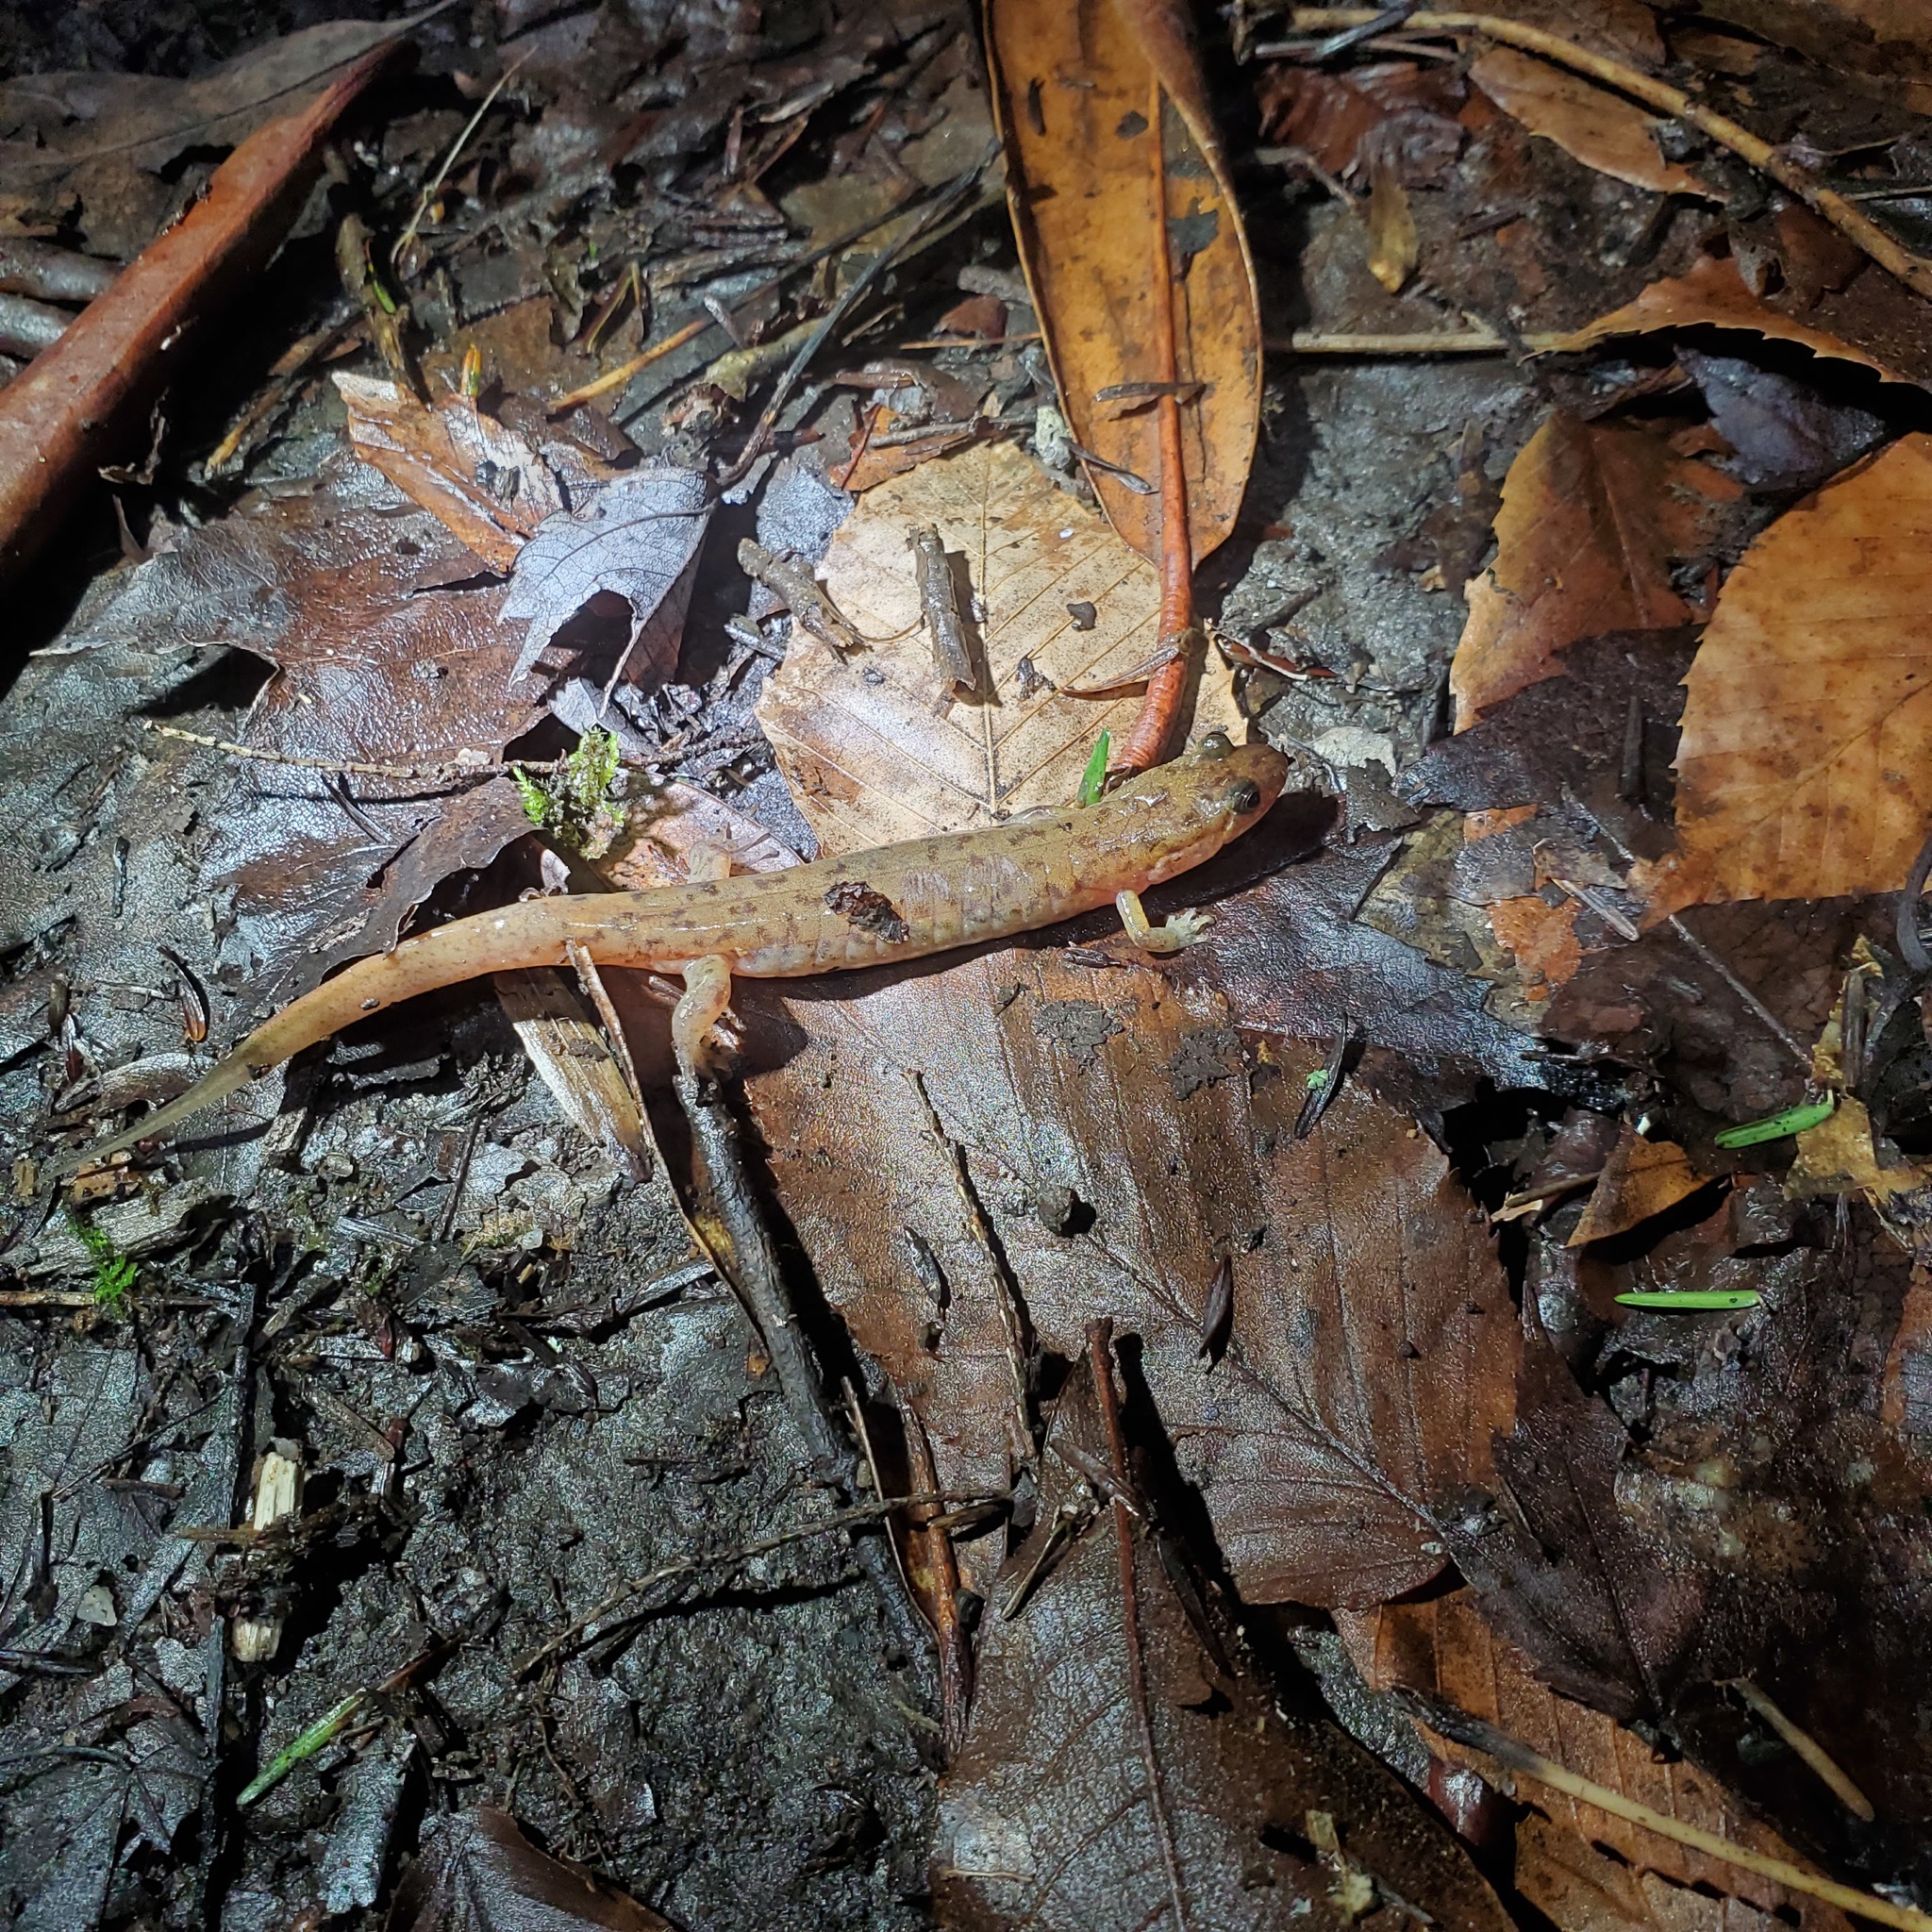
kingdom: Animalia
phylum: Chordata
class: Amphibia
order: Caudata
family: Plethodontidae
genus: Desmognathus
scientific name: Desmognathus monticola
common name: Seal salamander
